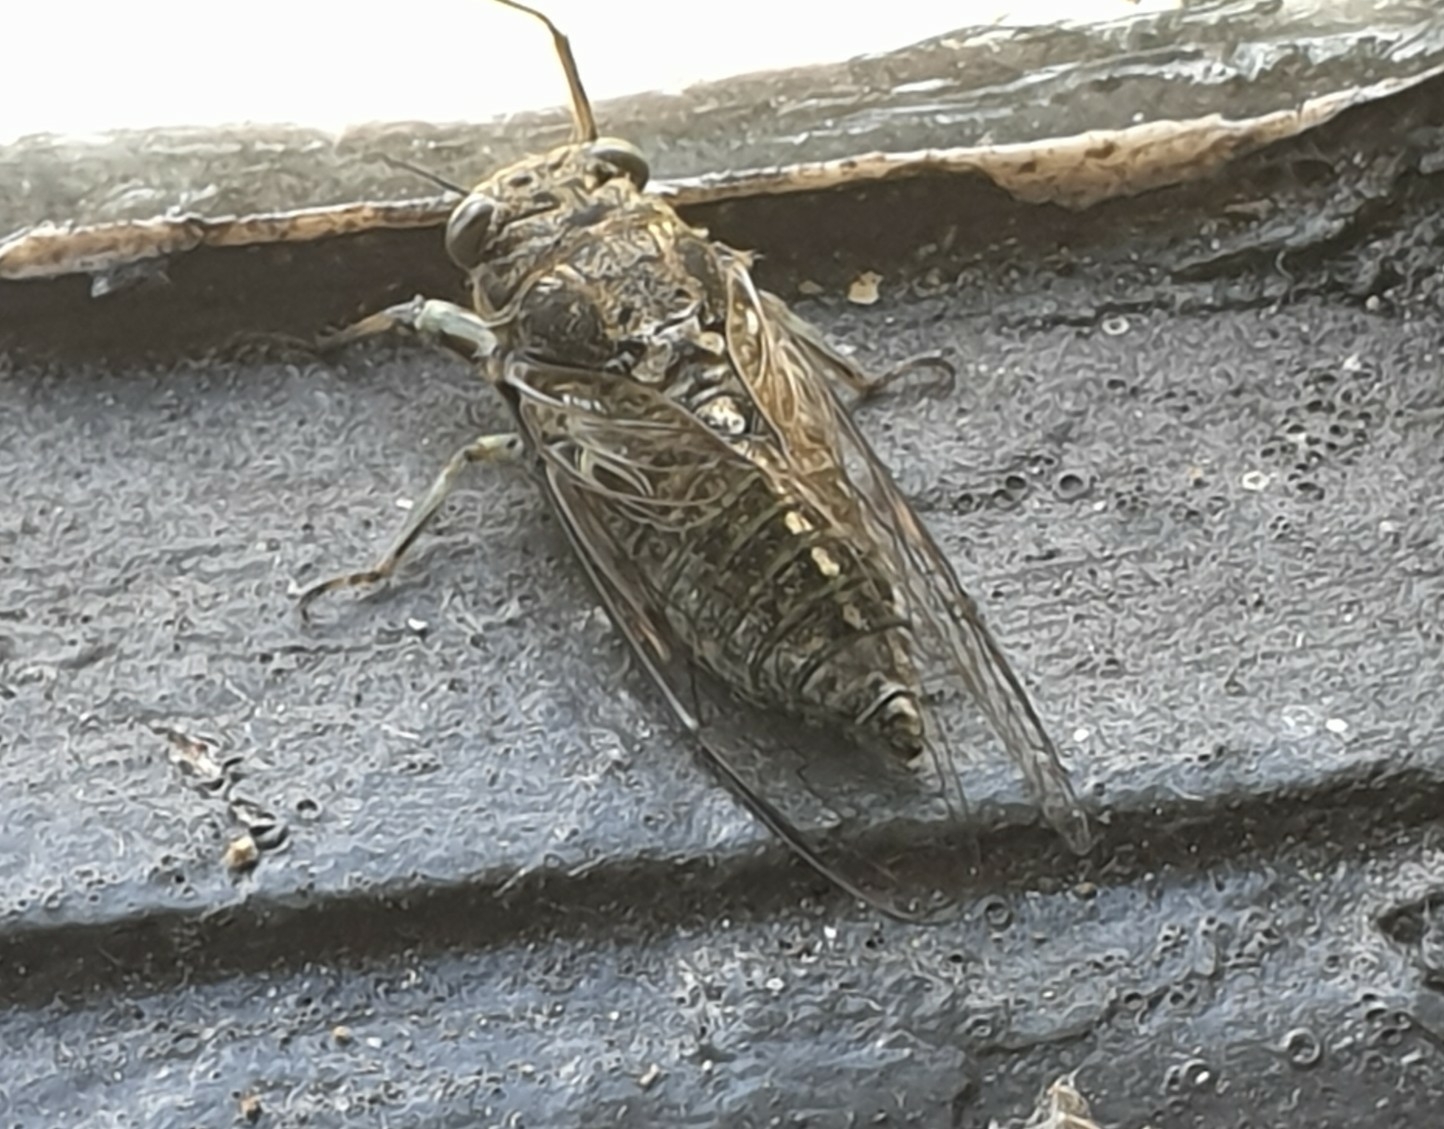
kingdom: Animalia
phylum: Arthropoda
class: Insecta
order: Hemiptera
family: Cicadidae
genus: Notopsalta
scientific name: Notopsalta sericea
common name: Clay bank cicada
